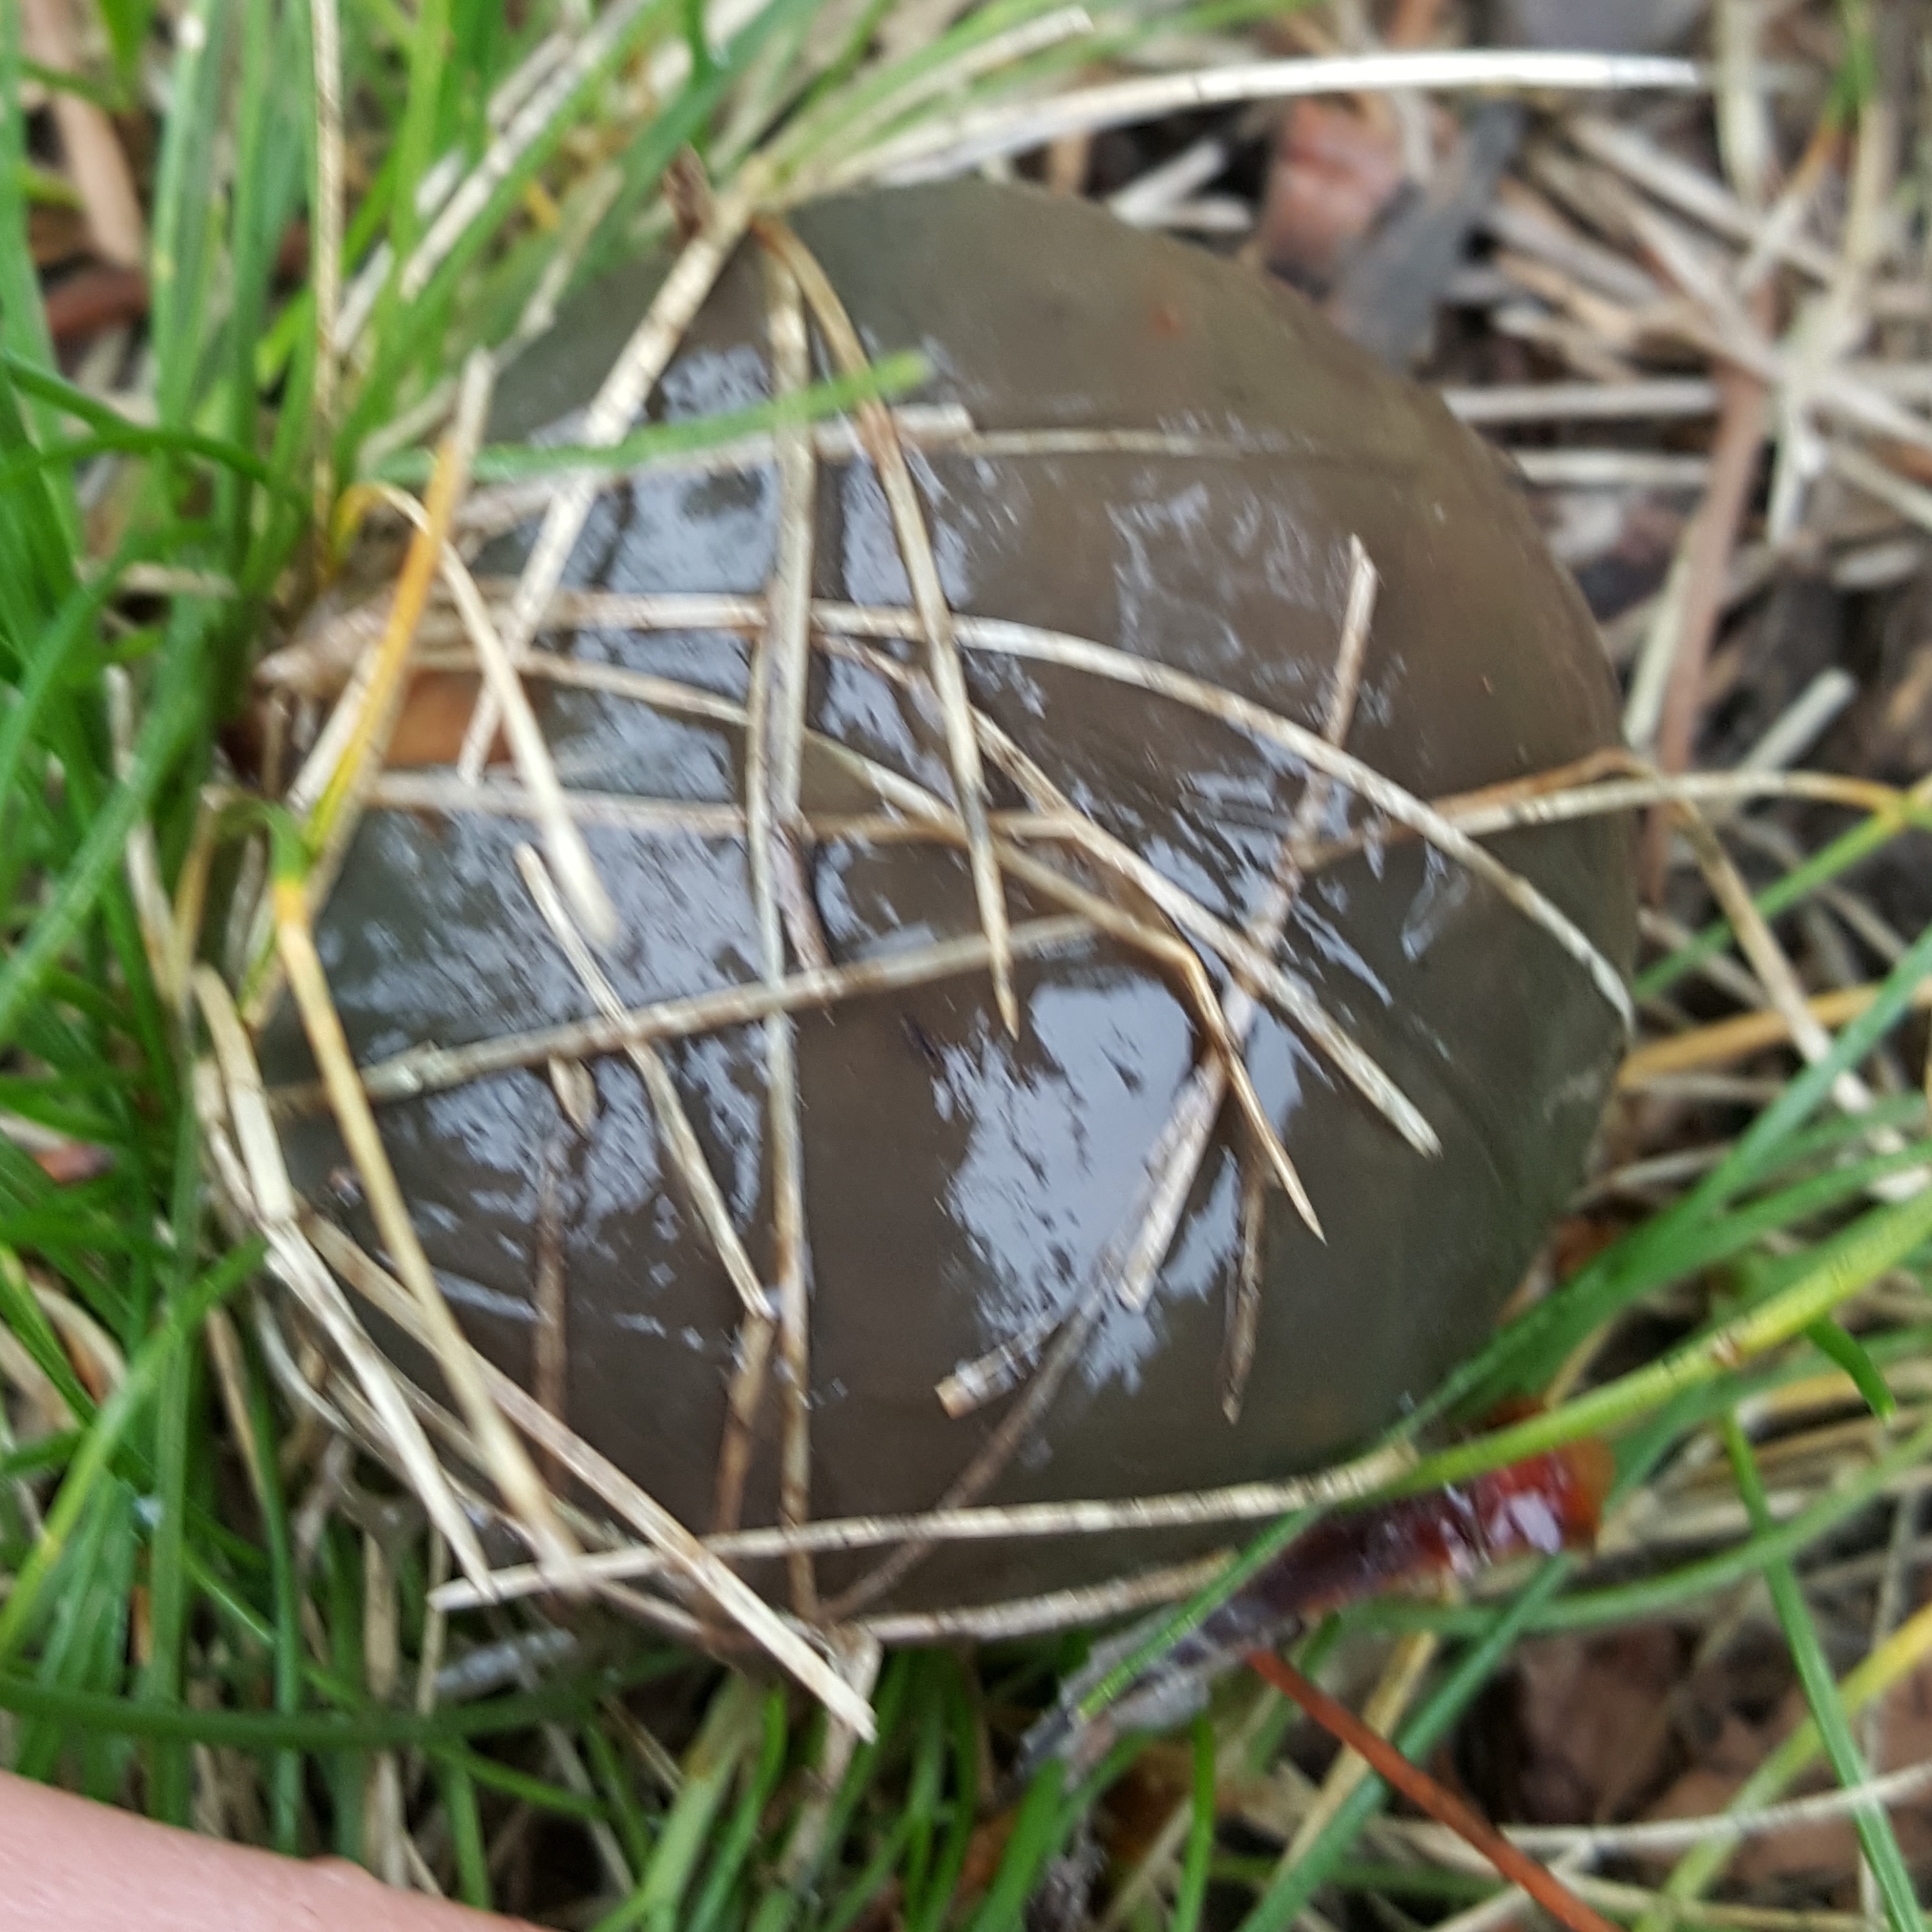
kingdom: Fungi
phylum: Basidiomycota
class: Agaricomycetes
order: Boletales
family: Suillaceae
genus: Suillus
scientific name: Suillus pungens
